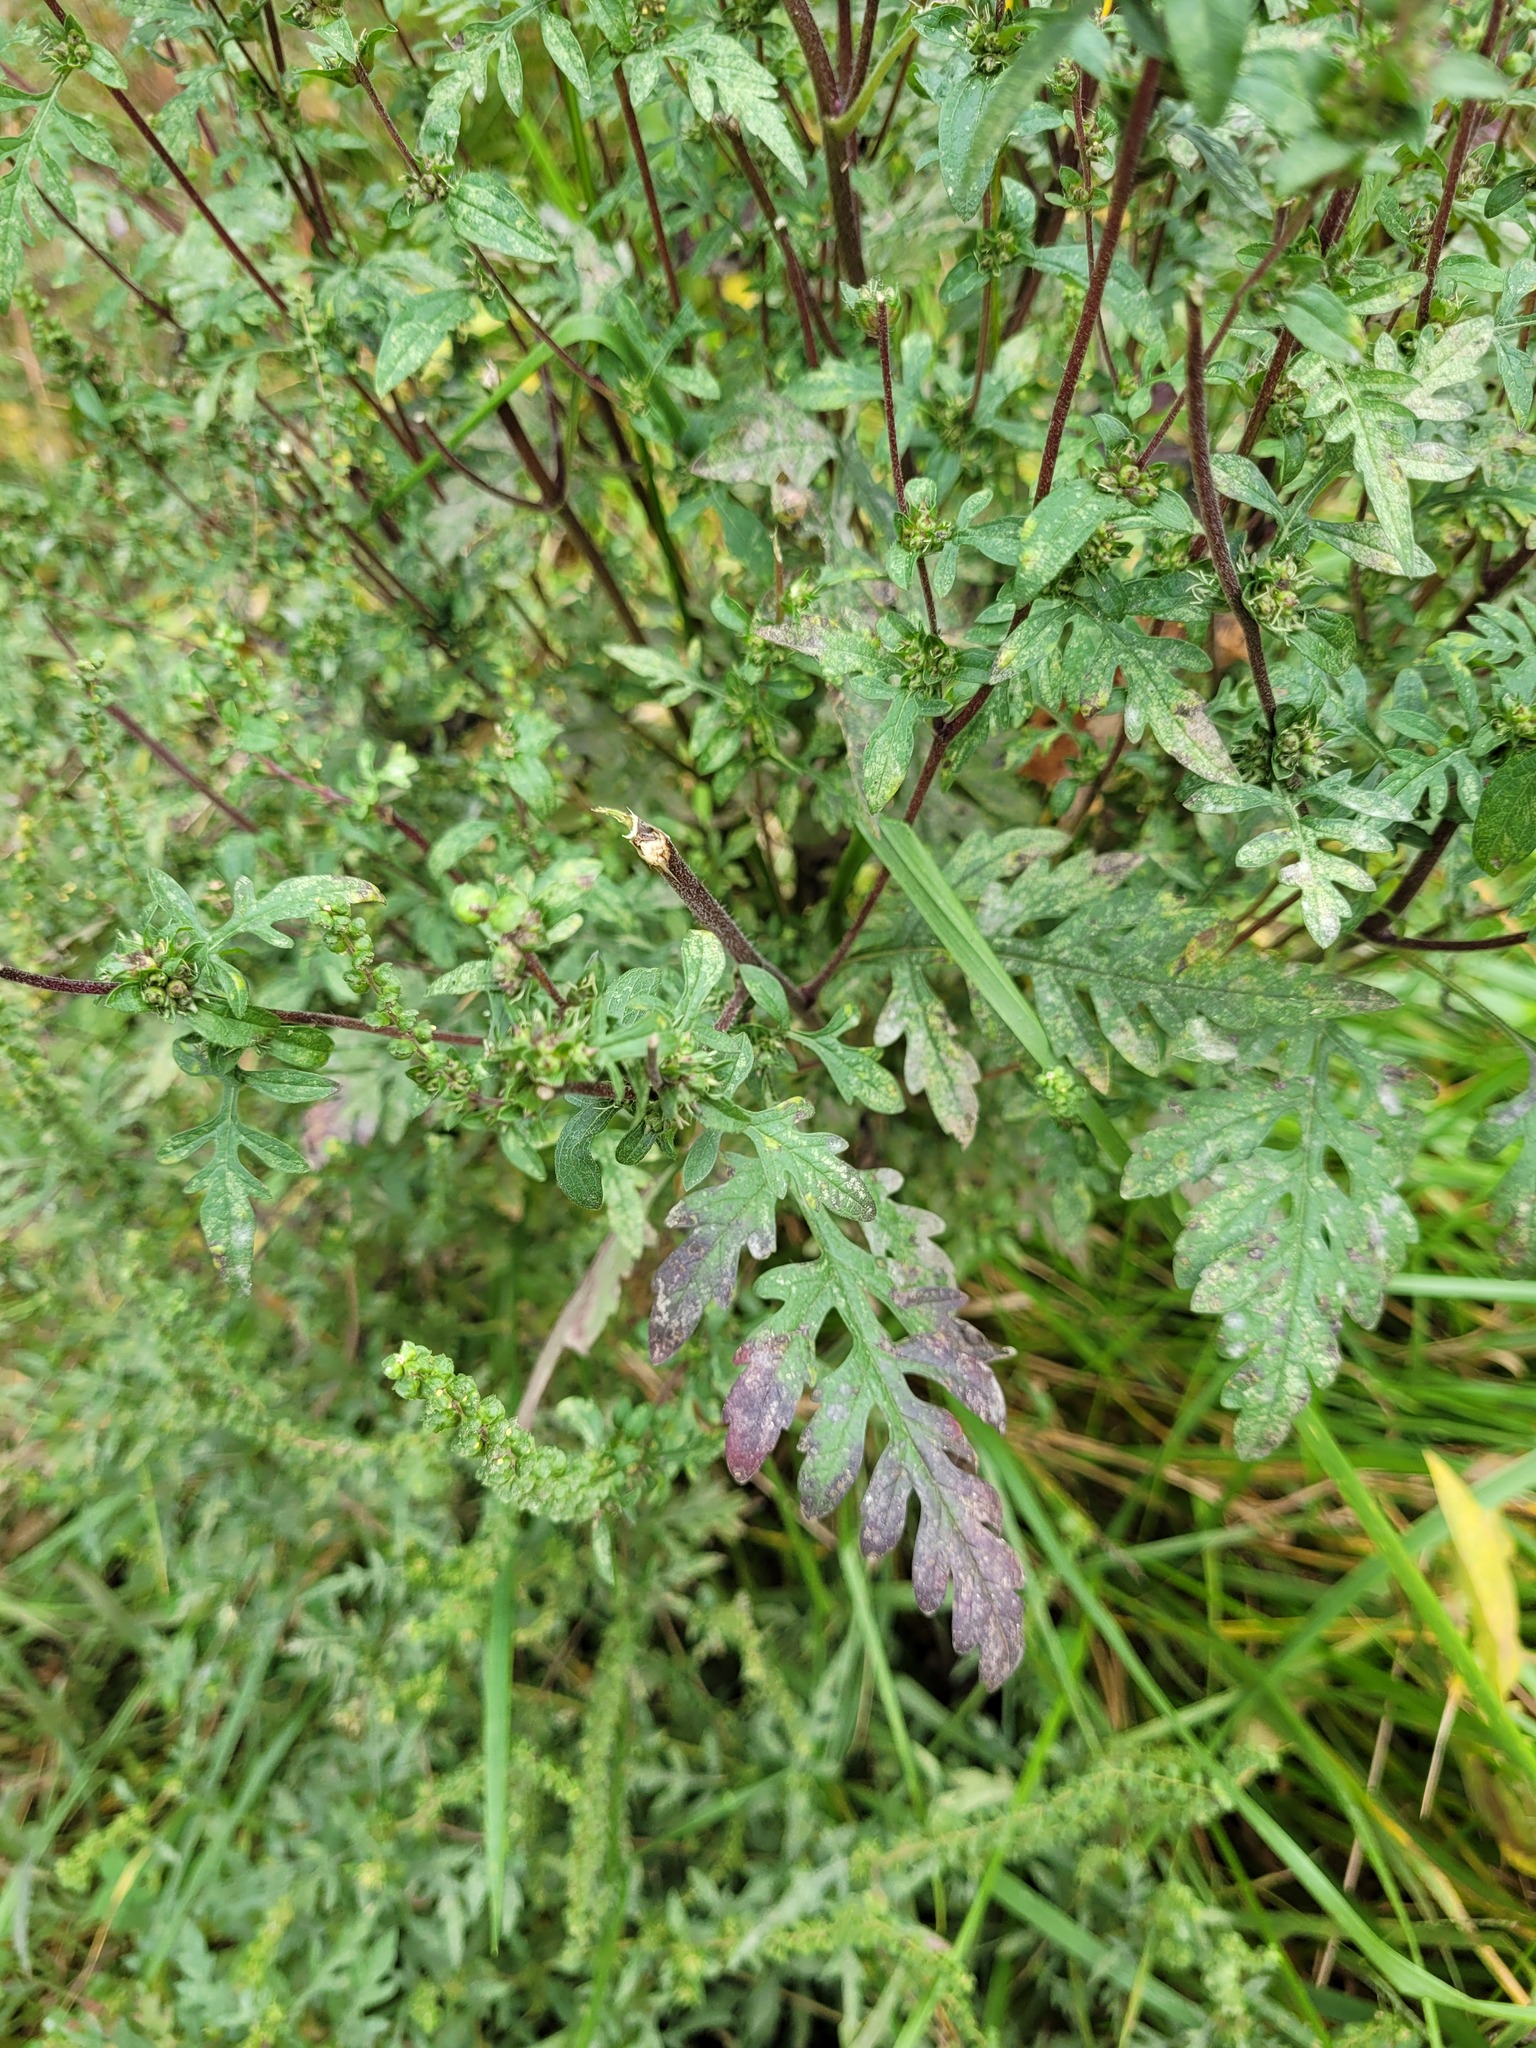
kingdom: Plantae
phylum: Tracheophyta
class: Magnoliopsida
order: Asterales
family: Asteraceae
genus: Ambrosia
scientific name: Ambrosia artemisiifolia
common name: Annual ragweed
